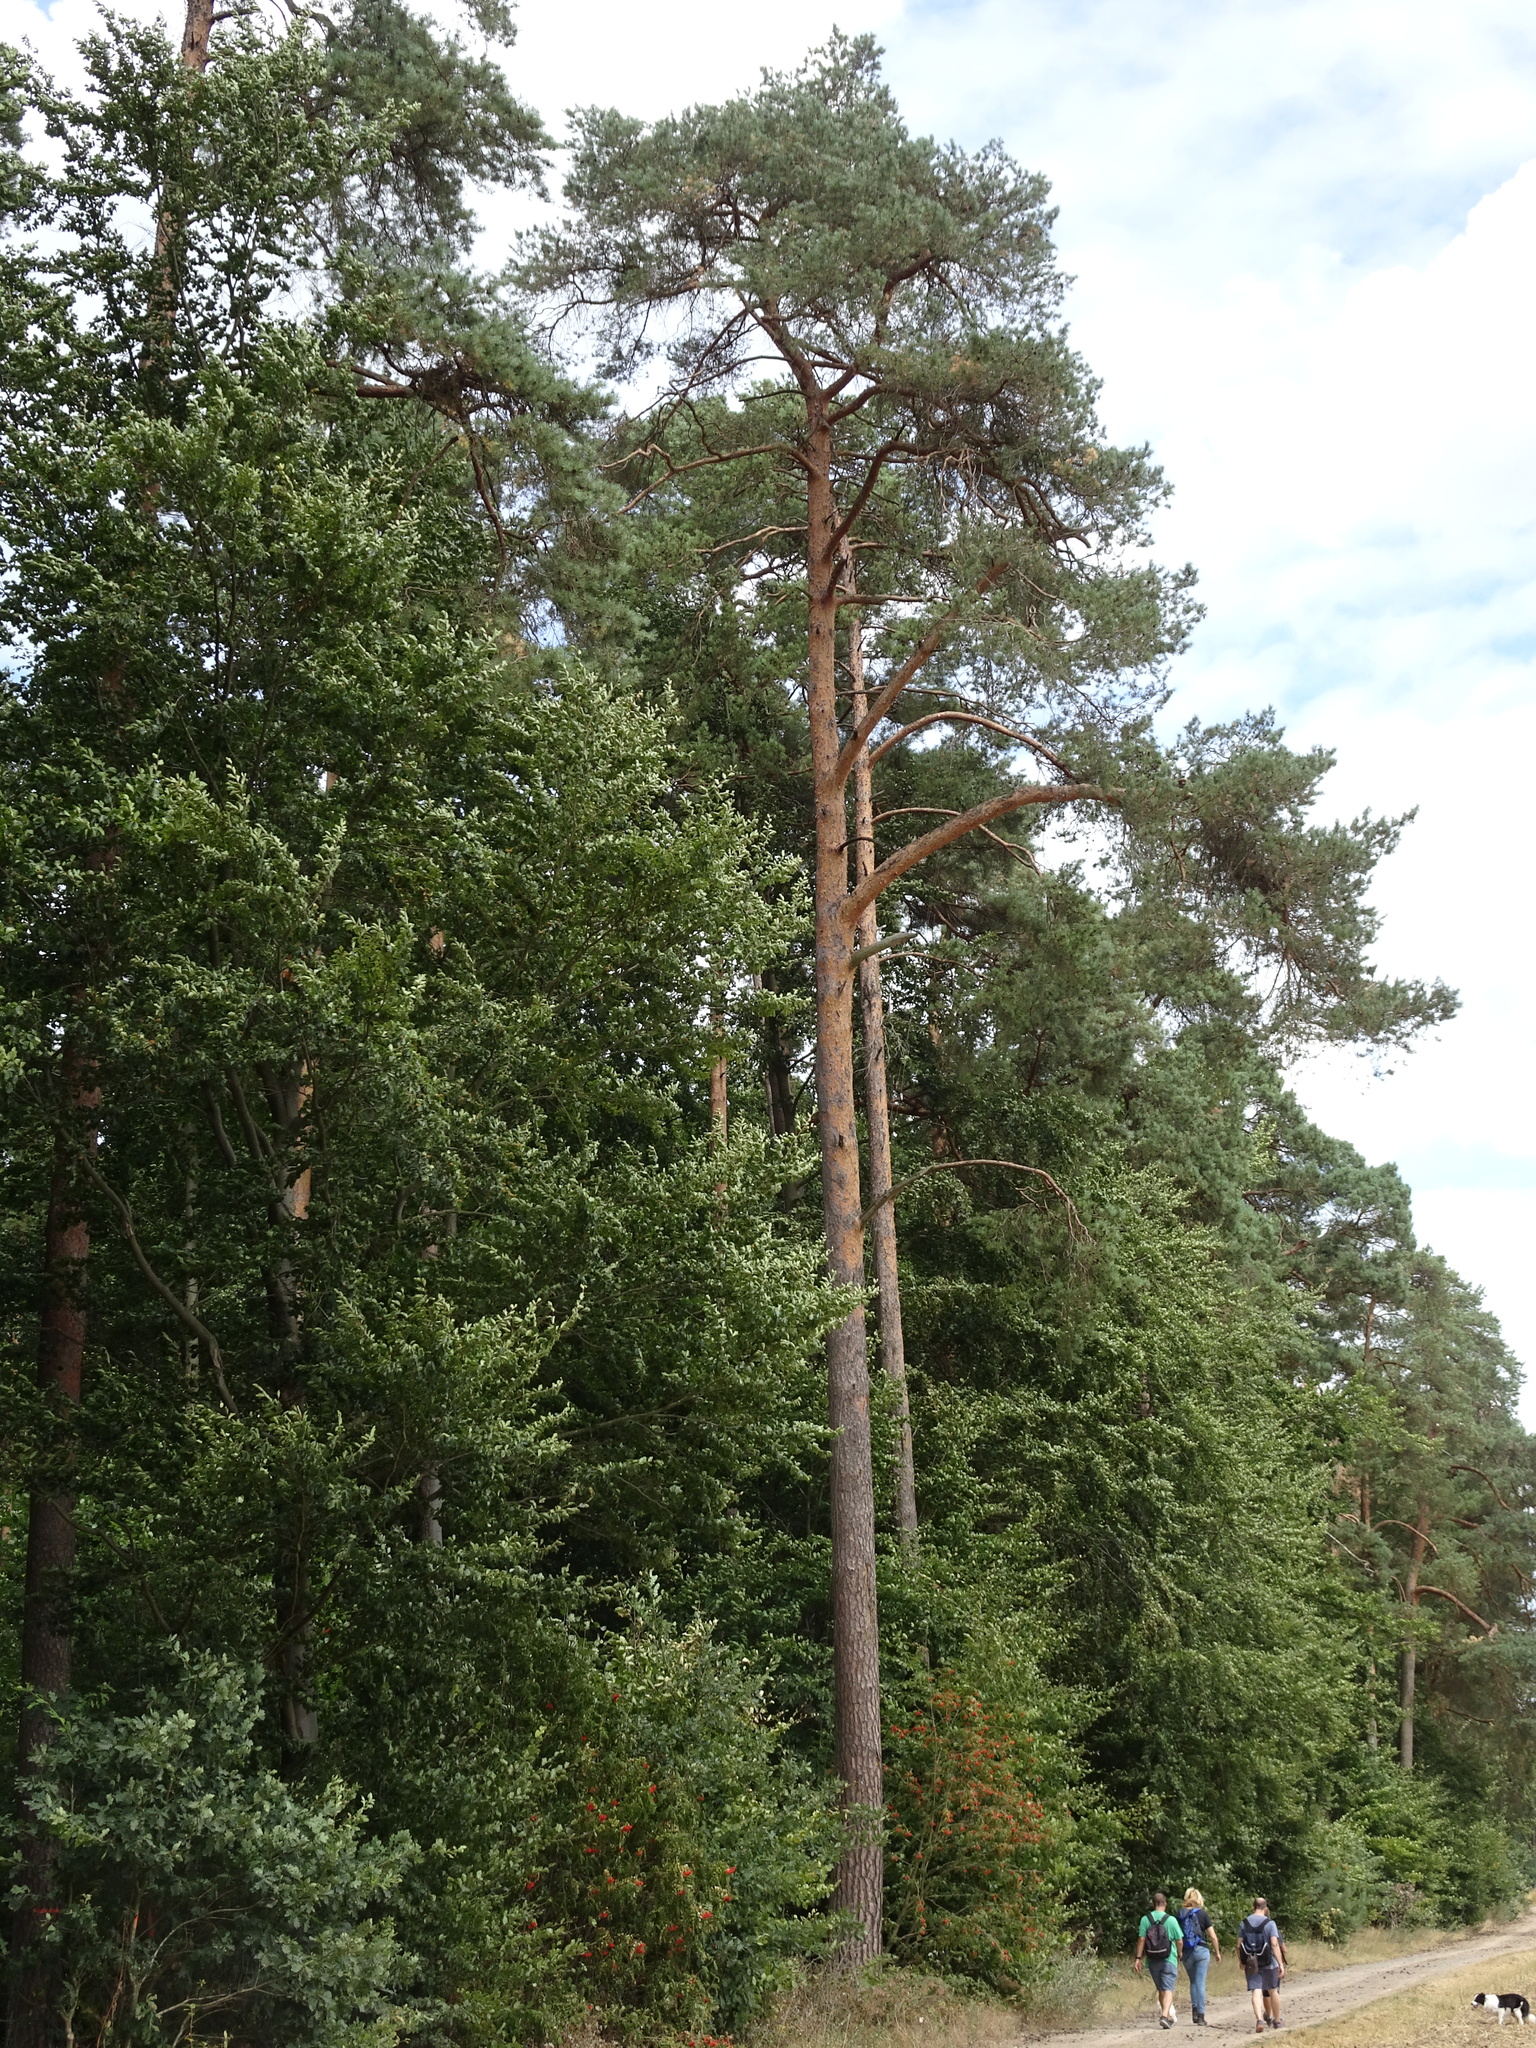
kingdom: Plantae
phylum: Tracheophyta
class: Pinopsida
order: Pinales
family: Pinaceae
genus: Pinus
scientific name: Pinus sylvestris
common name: Scots pine
